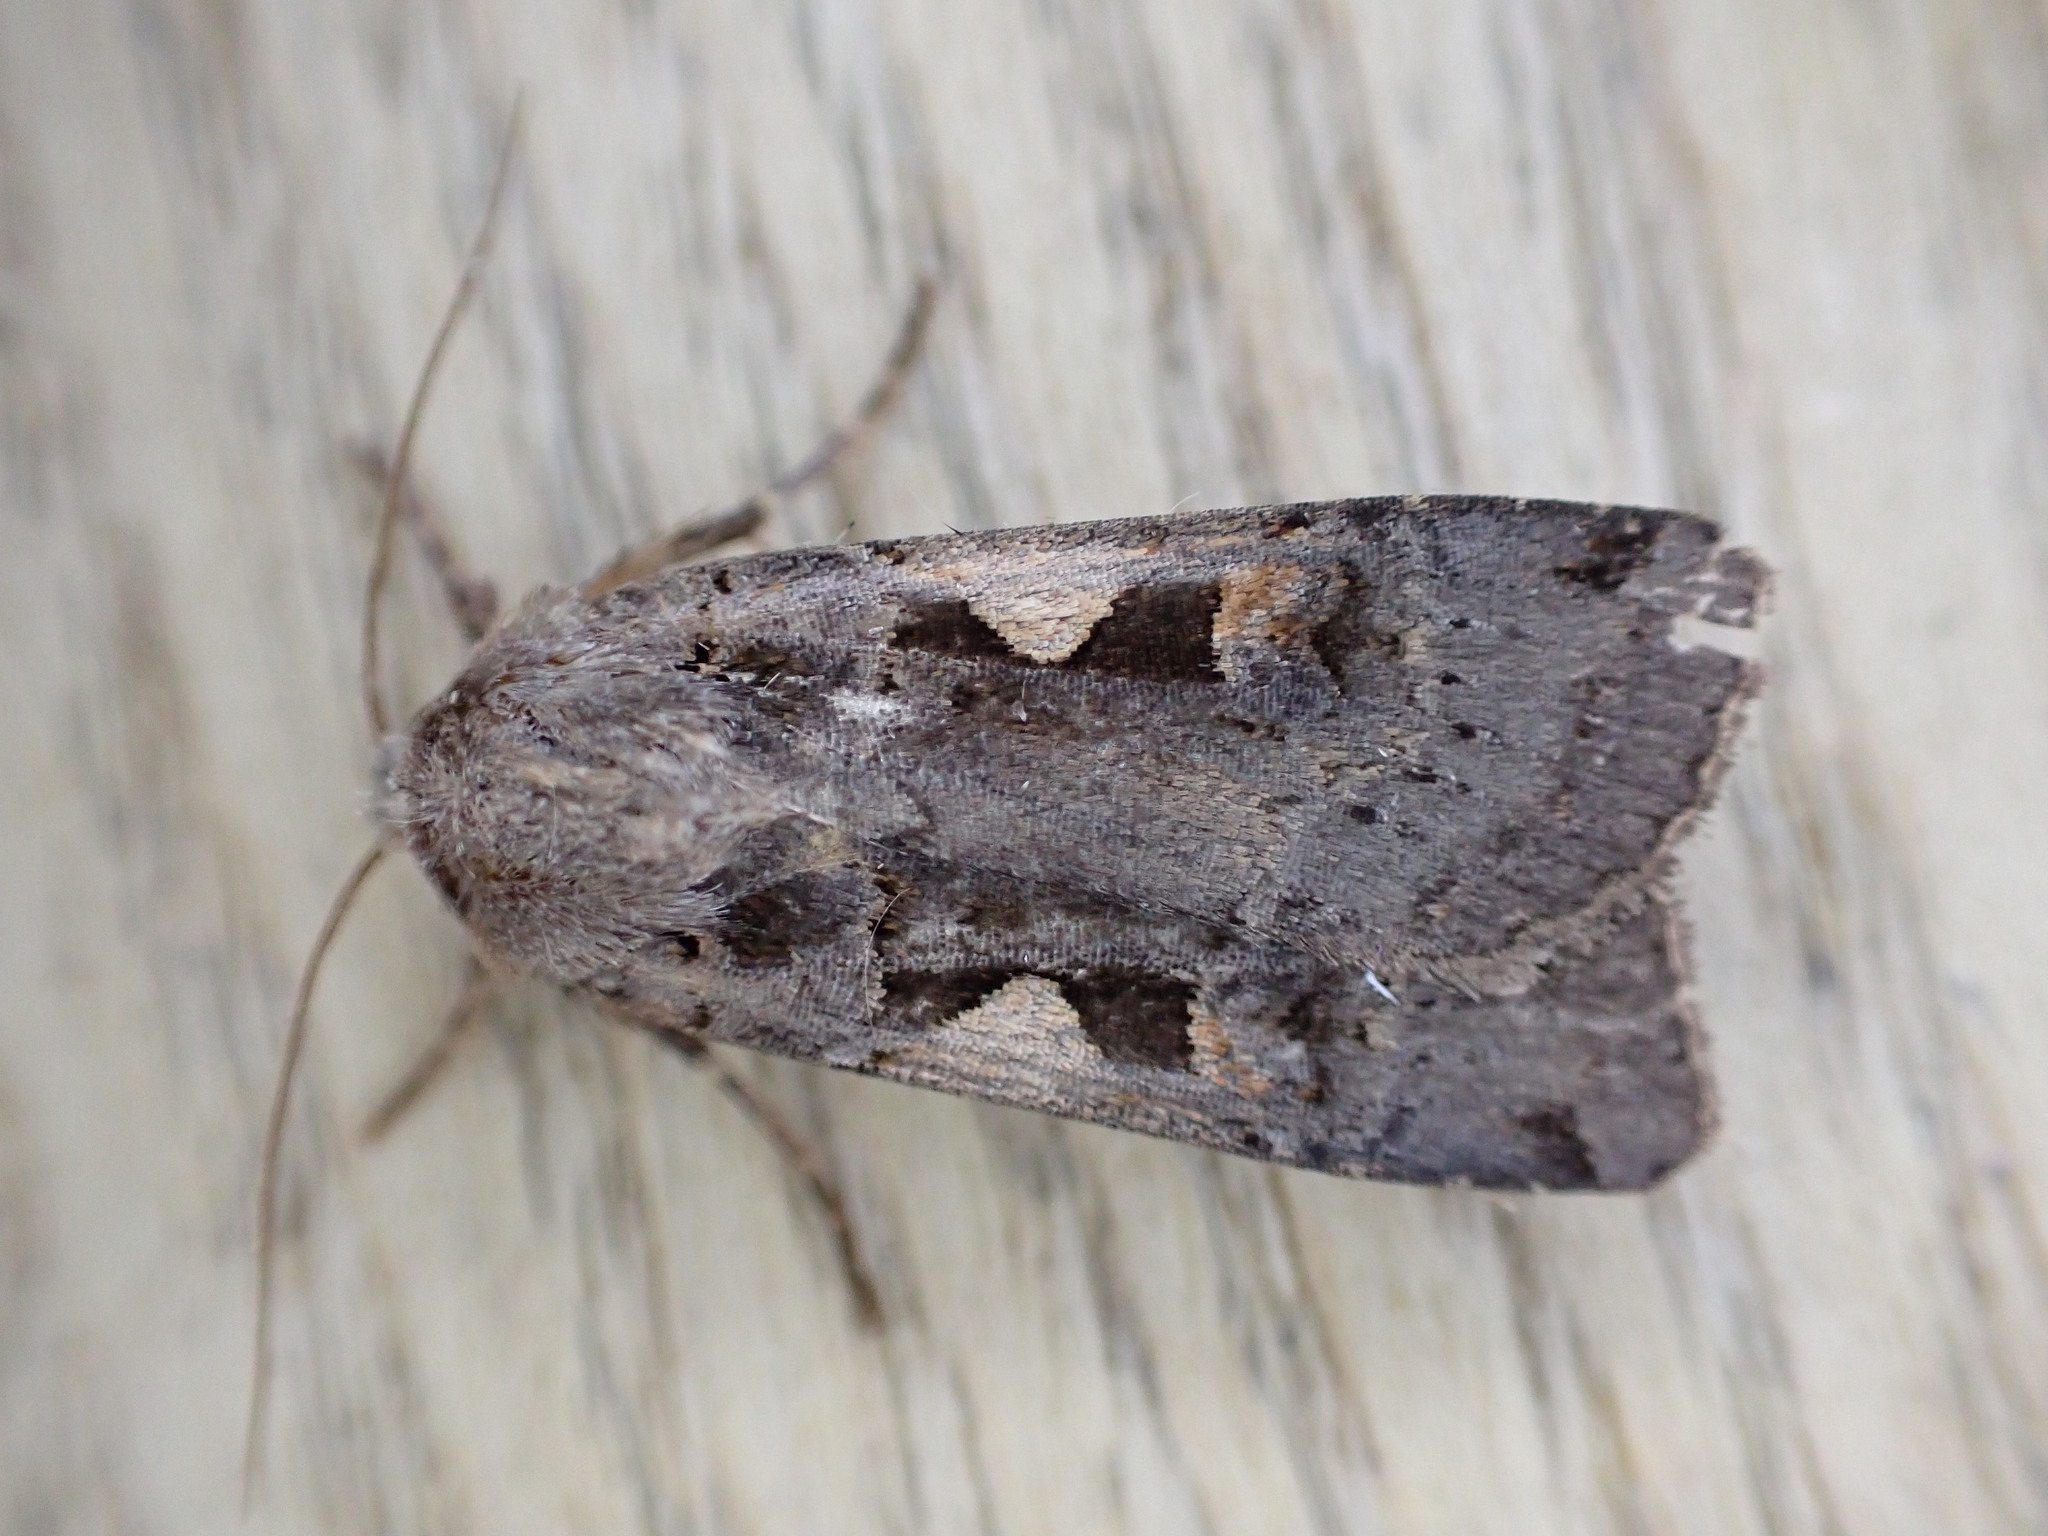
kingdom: Animalia
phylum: Arthropoda
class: Insecta
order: Lepidoptera
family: Noctuidae
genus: Xestia
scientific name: Xestia c-nigrum
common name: Setaceous hebrew character
